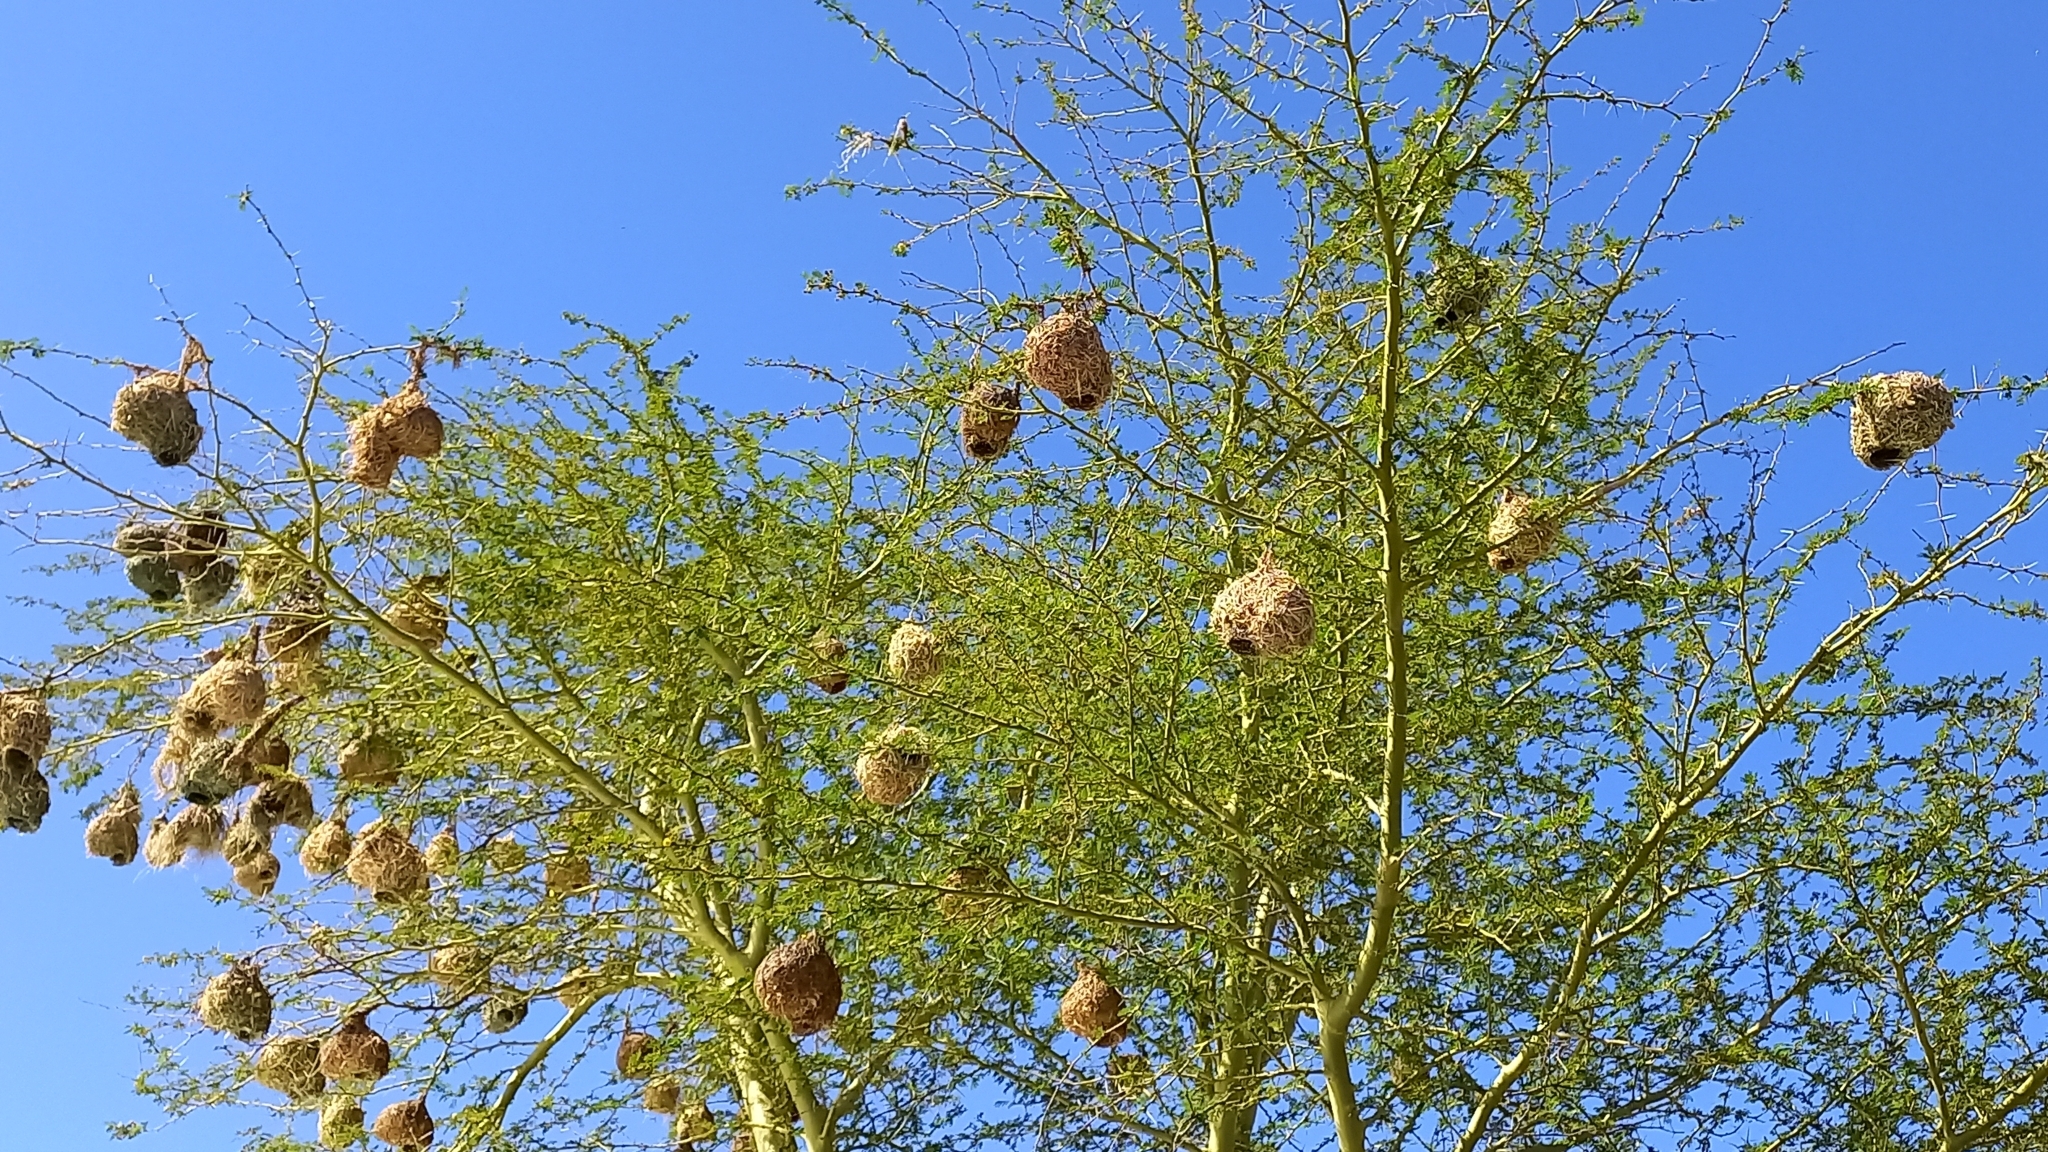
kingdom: Animalia
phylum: Chordata
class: Aves
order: Passeriformes
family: Ploceidae
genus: Ploceus
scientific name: Ploceus capensis
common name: Cape weaver
